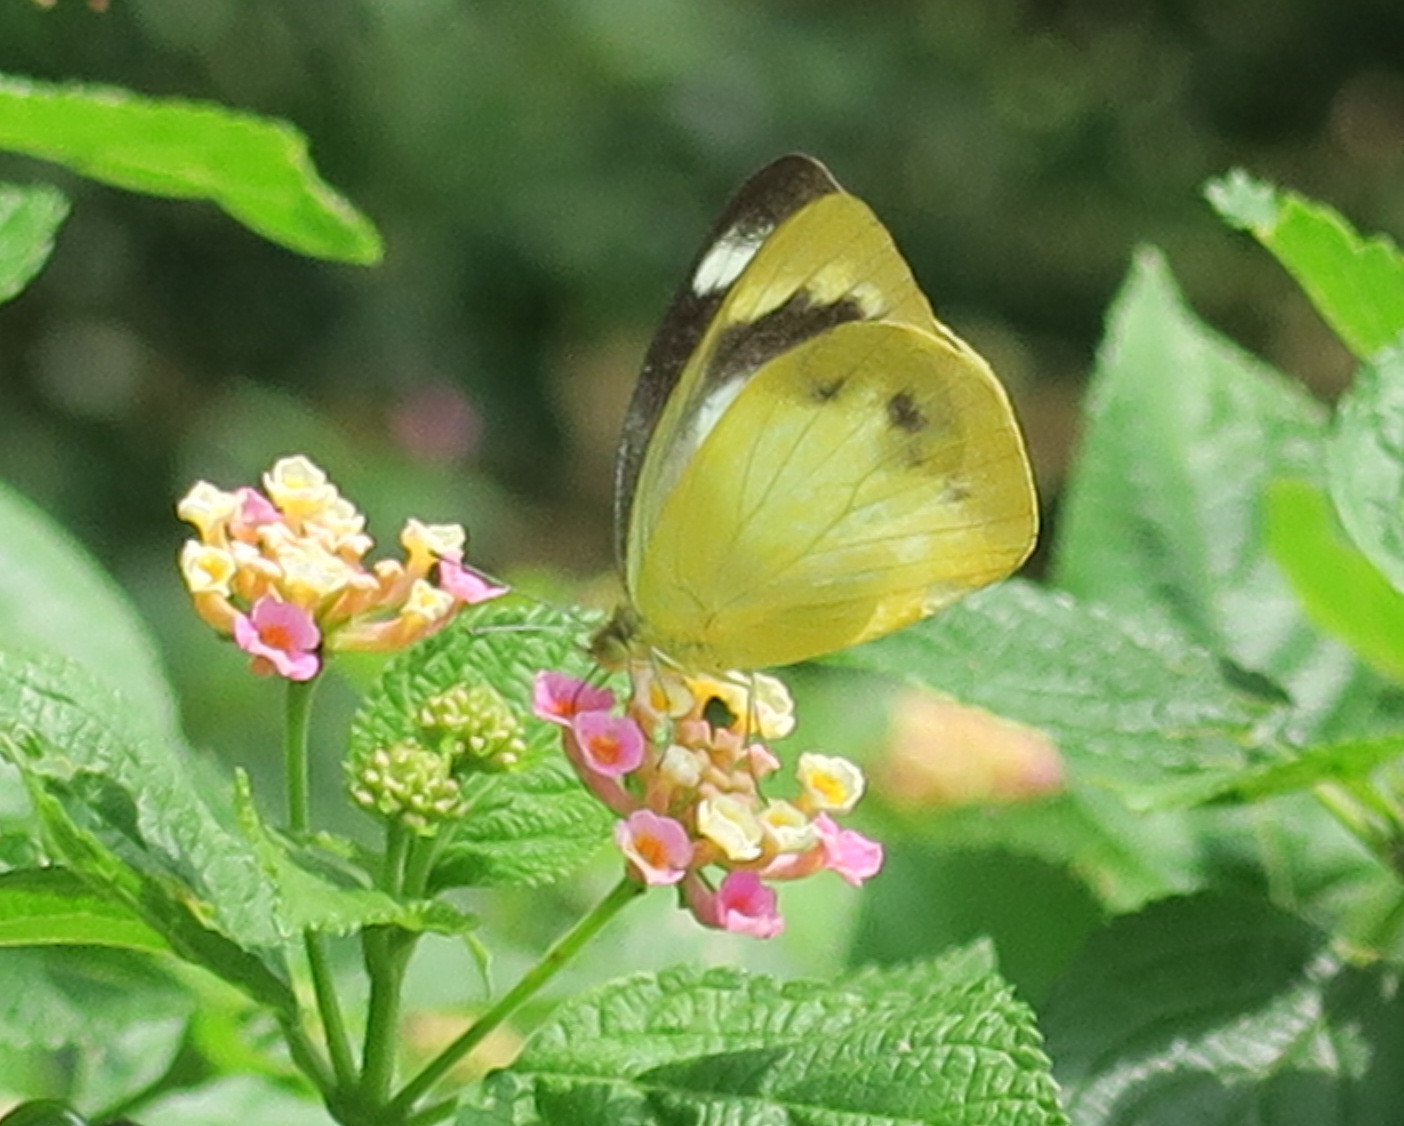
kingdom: Animalia
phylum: Arthropoda
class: Insecta
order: Lepidoptera
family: Pieridae
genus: Appias
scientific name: Appias paulina
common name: Ceylon lesser albatross
